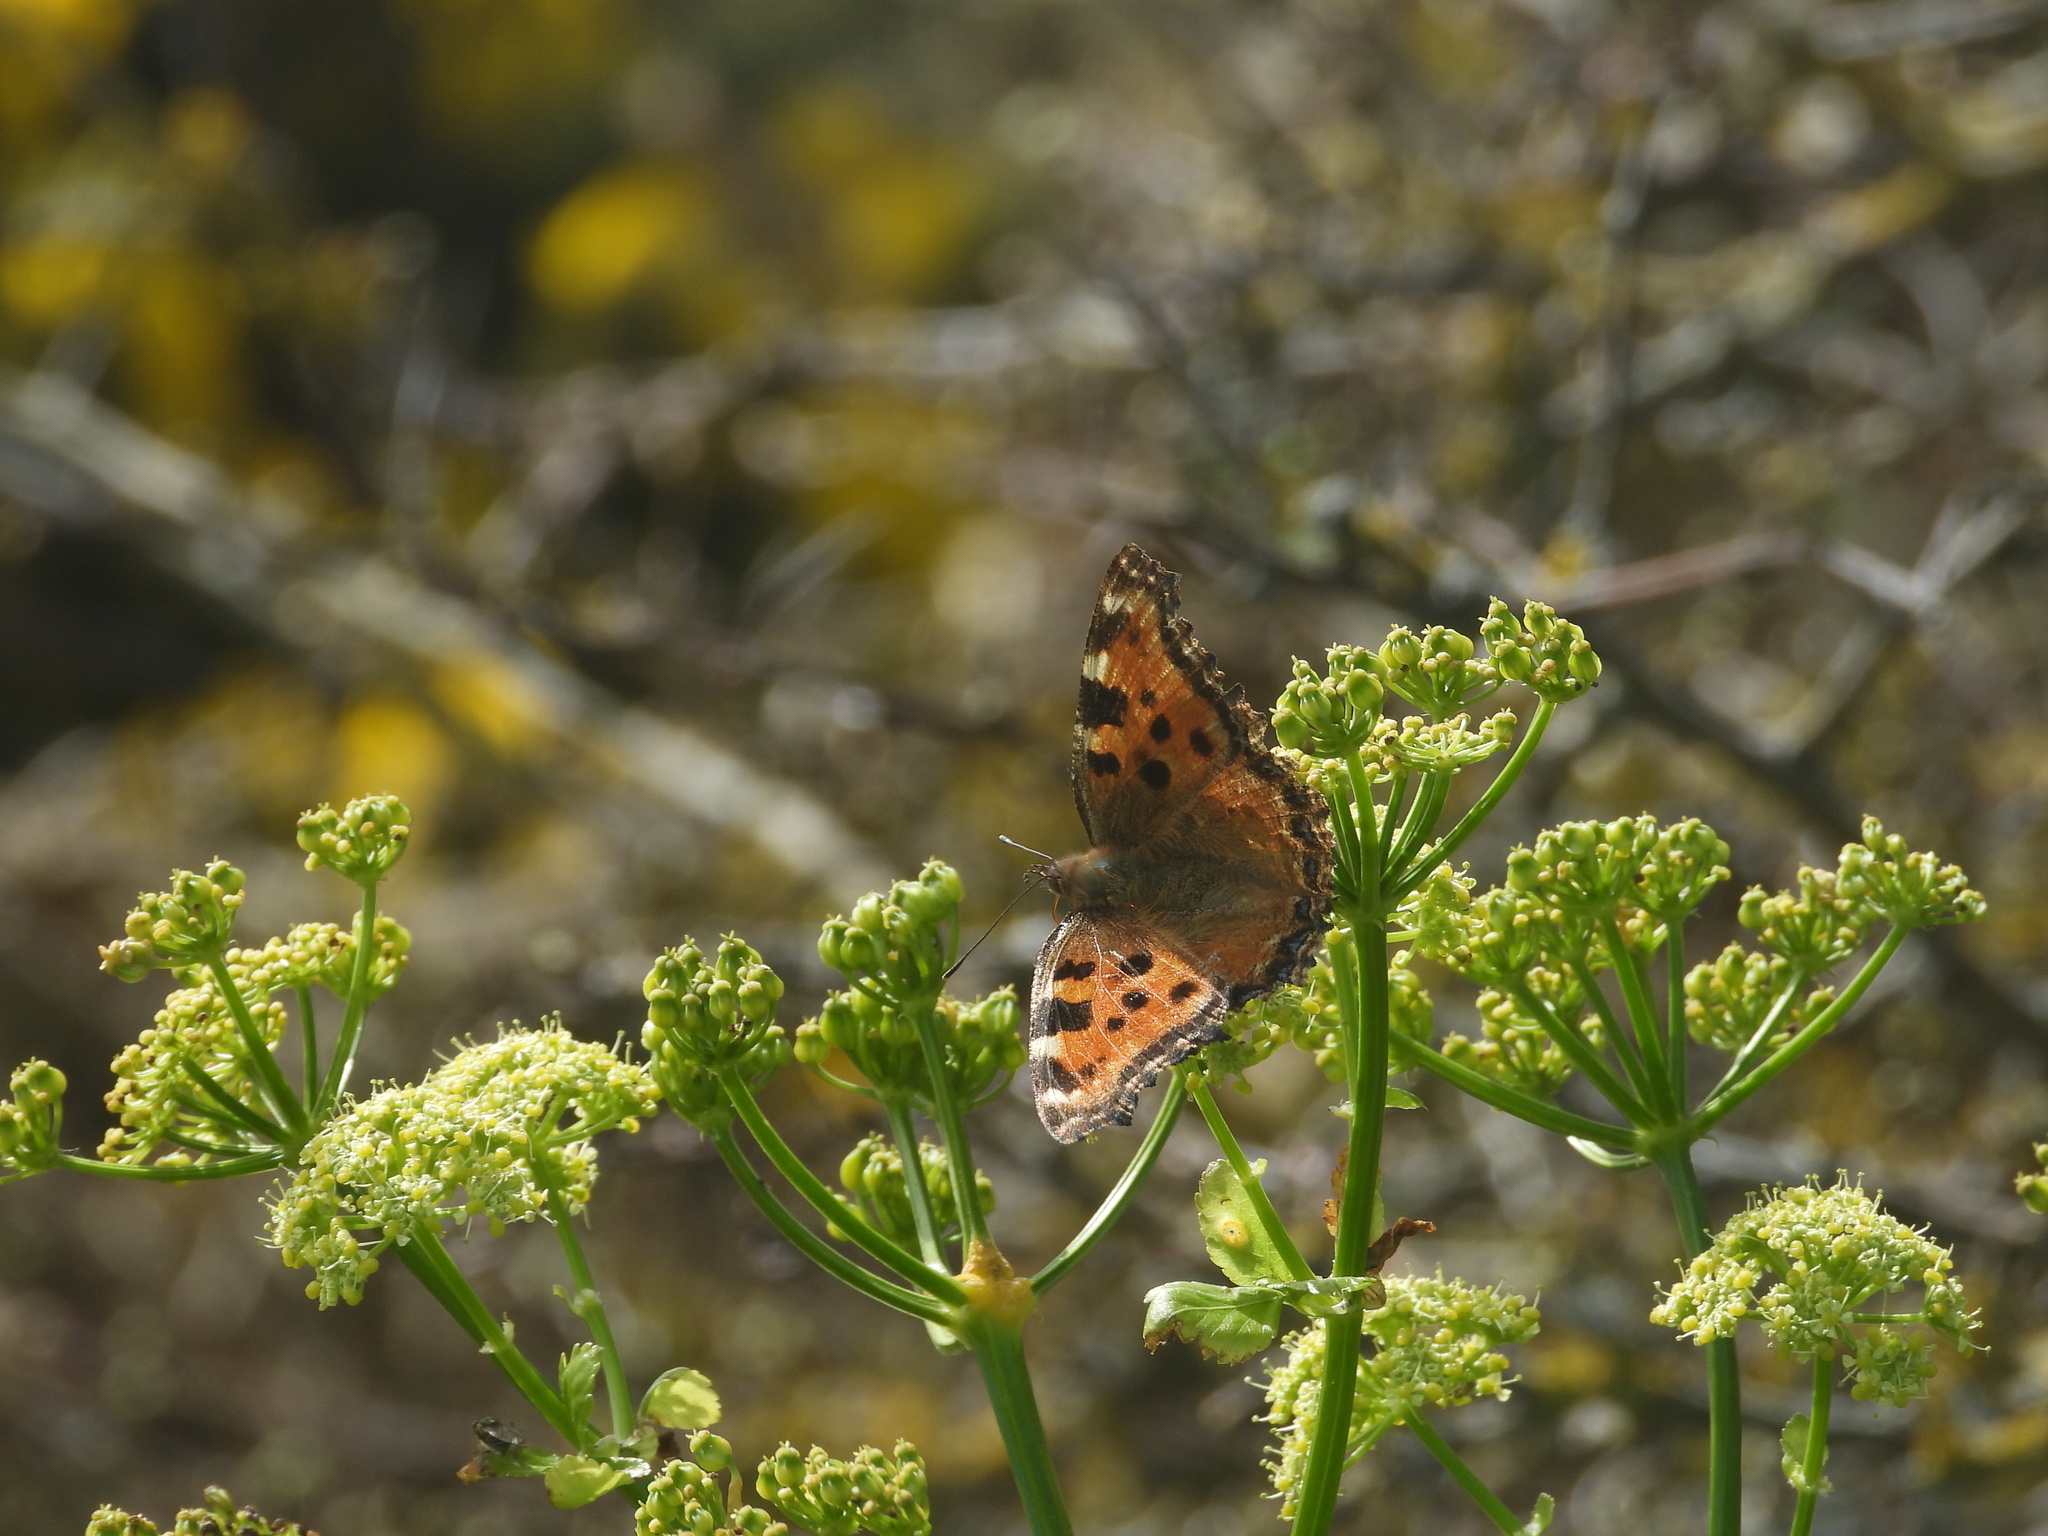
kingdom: Animalia
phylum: Arthropoda
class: Insecta
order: Lepidoptera
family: Nymphalidae
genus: Nymphalis
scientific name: Nymphalis polychloros
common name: Large tortoiseshell
